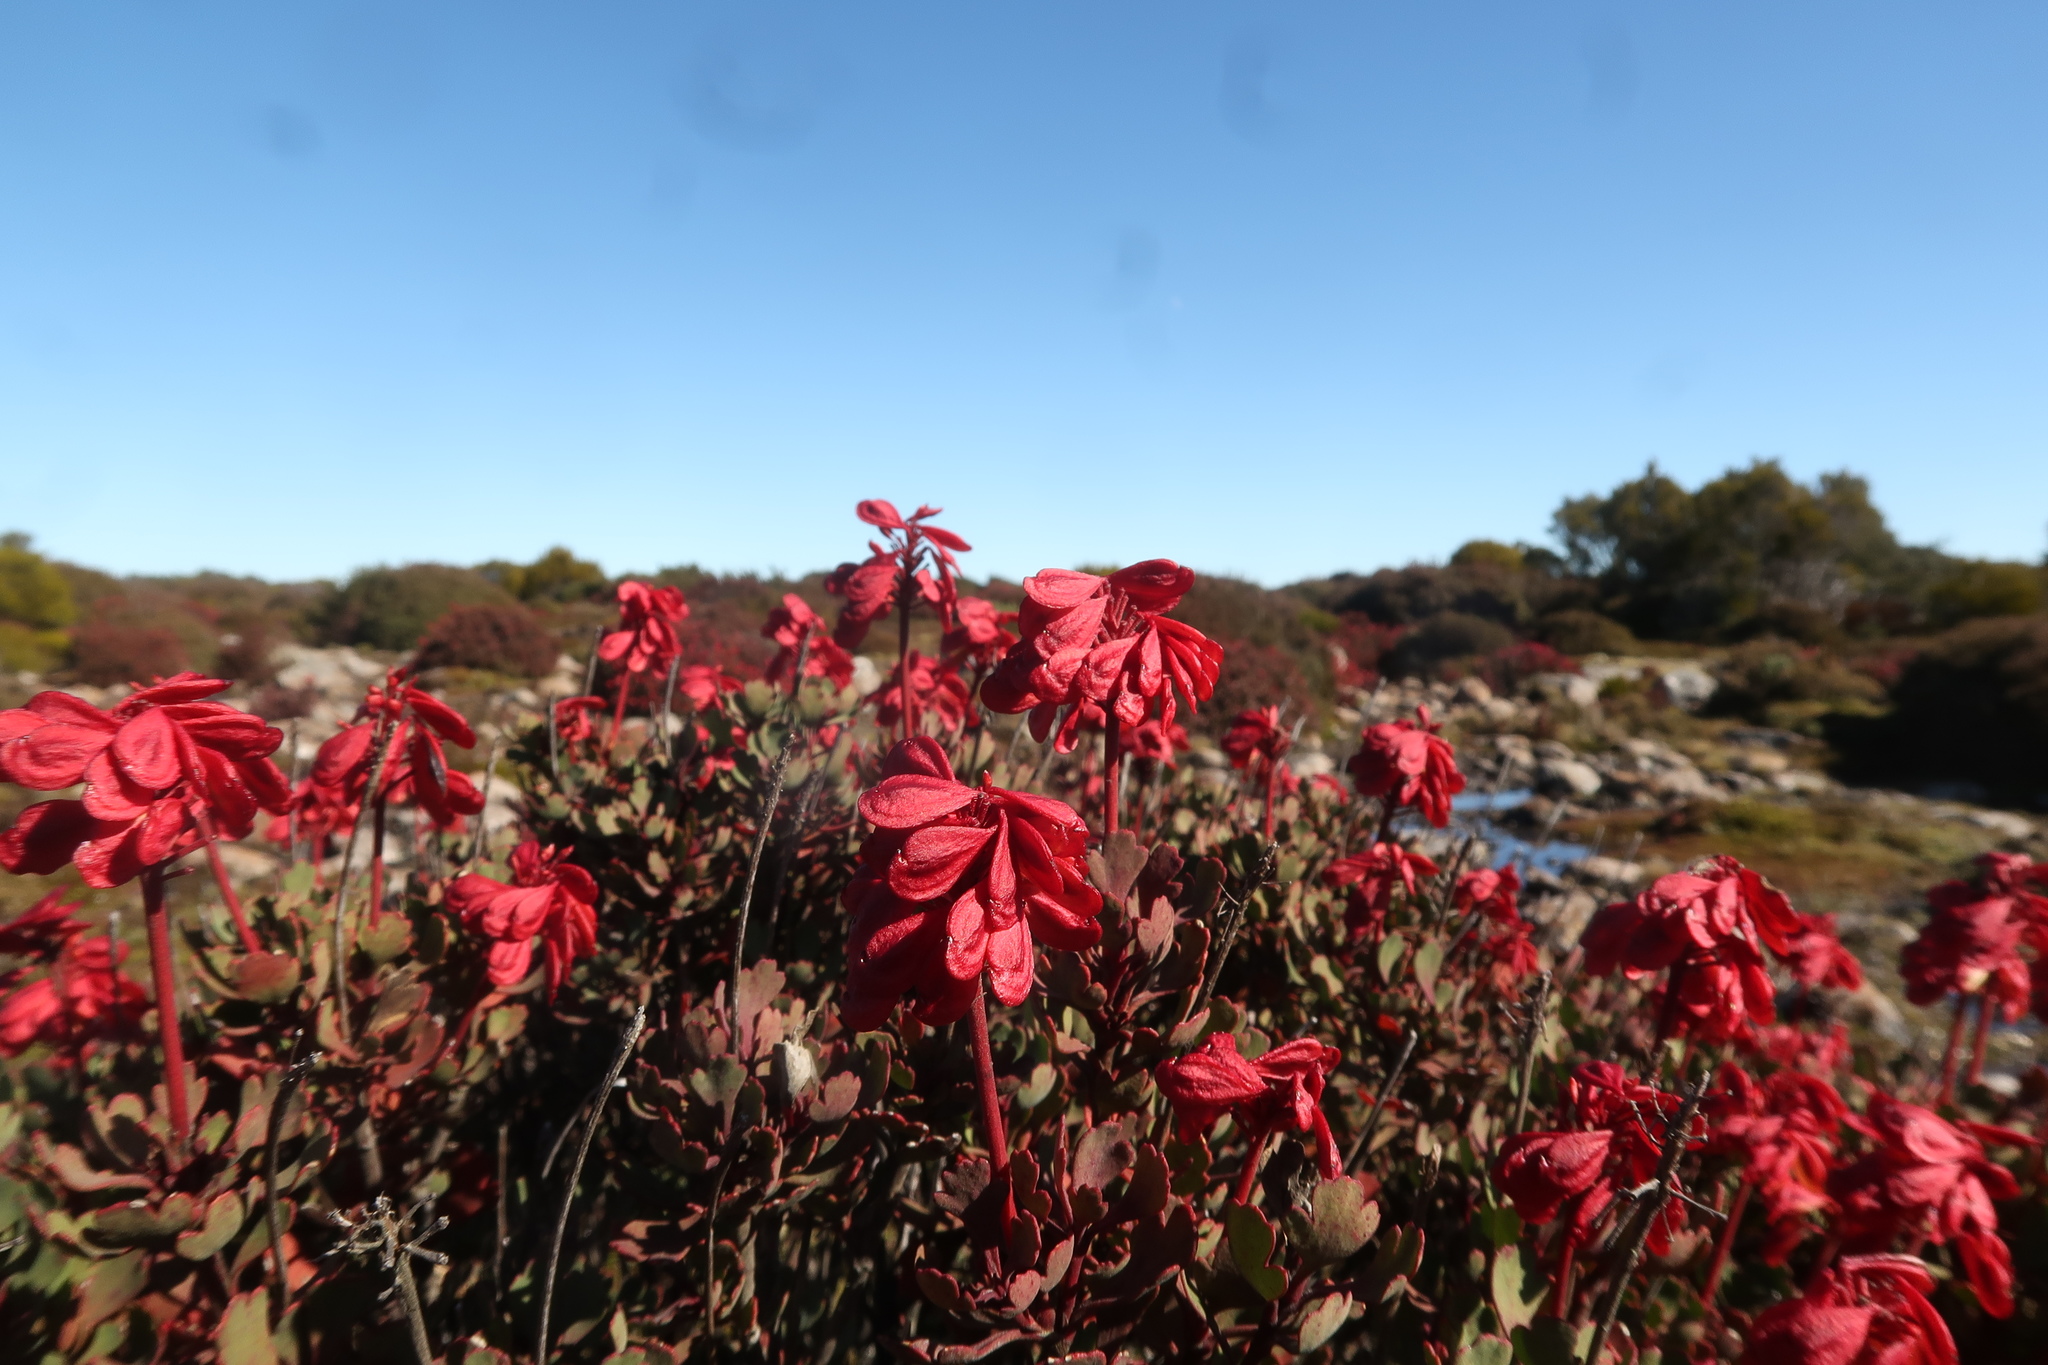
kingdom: Plantae
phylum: Tracheophyta
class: Magnoliopsida
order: Proteales
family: Proteaceae
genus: Bellendena
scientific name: Bellendena montana
